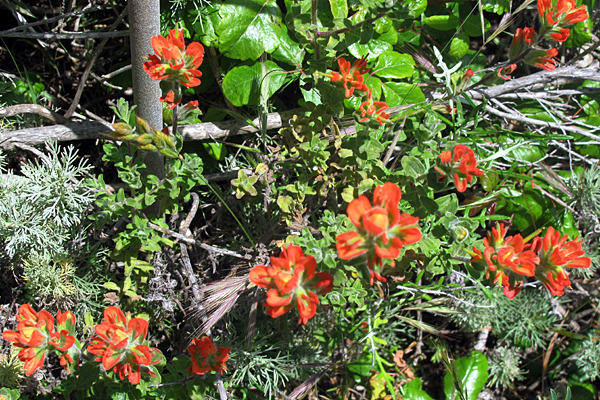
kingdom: Plantae
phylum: Tracheophyta
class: Magnoliopsida
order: Lamiales
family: Orobanchaceae
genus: Castilleja
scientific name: Castilleja latifolia
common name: Monterey indian paintbrush
